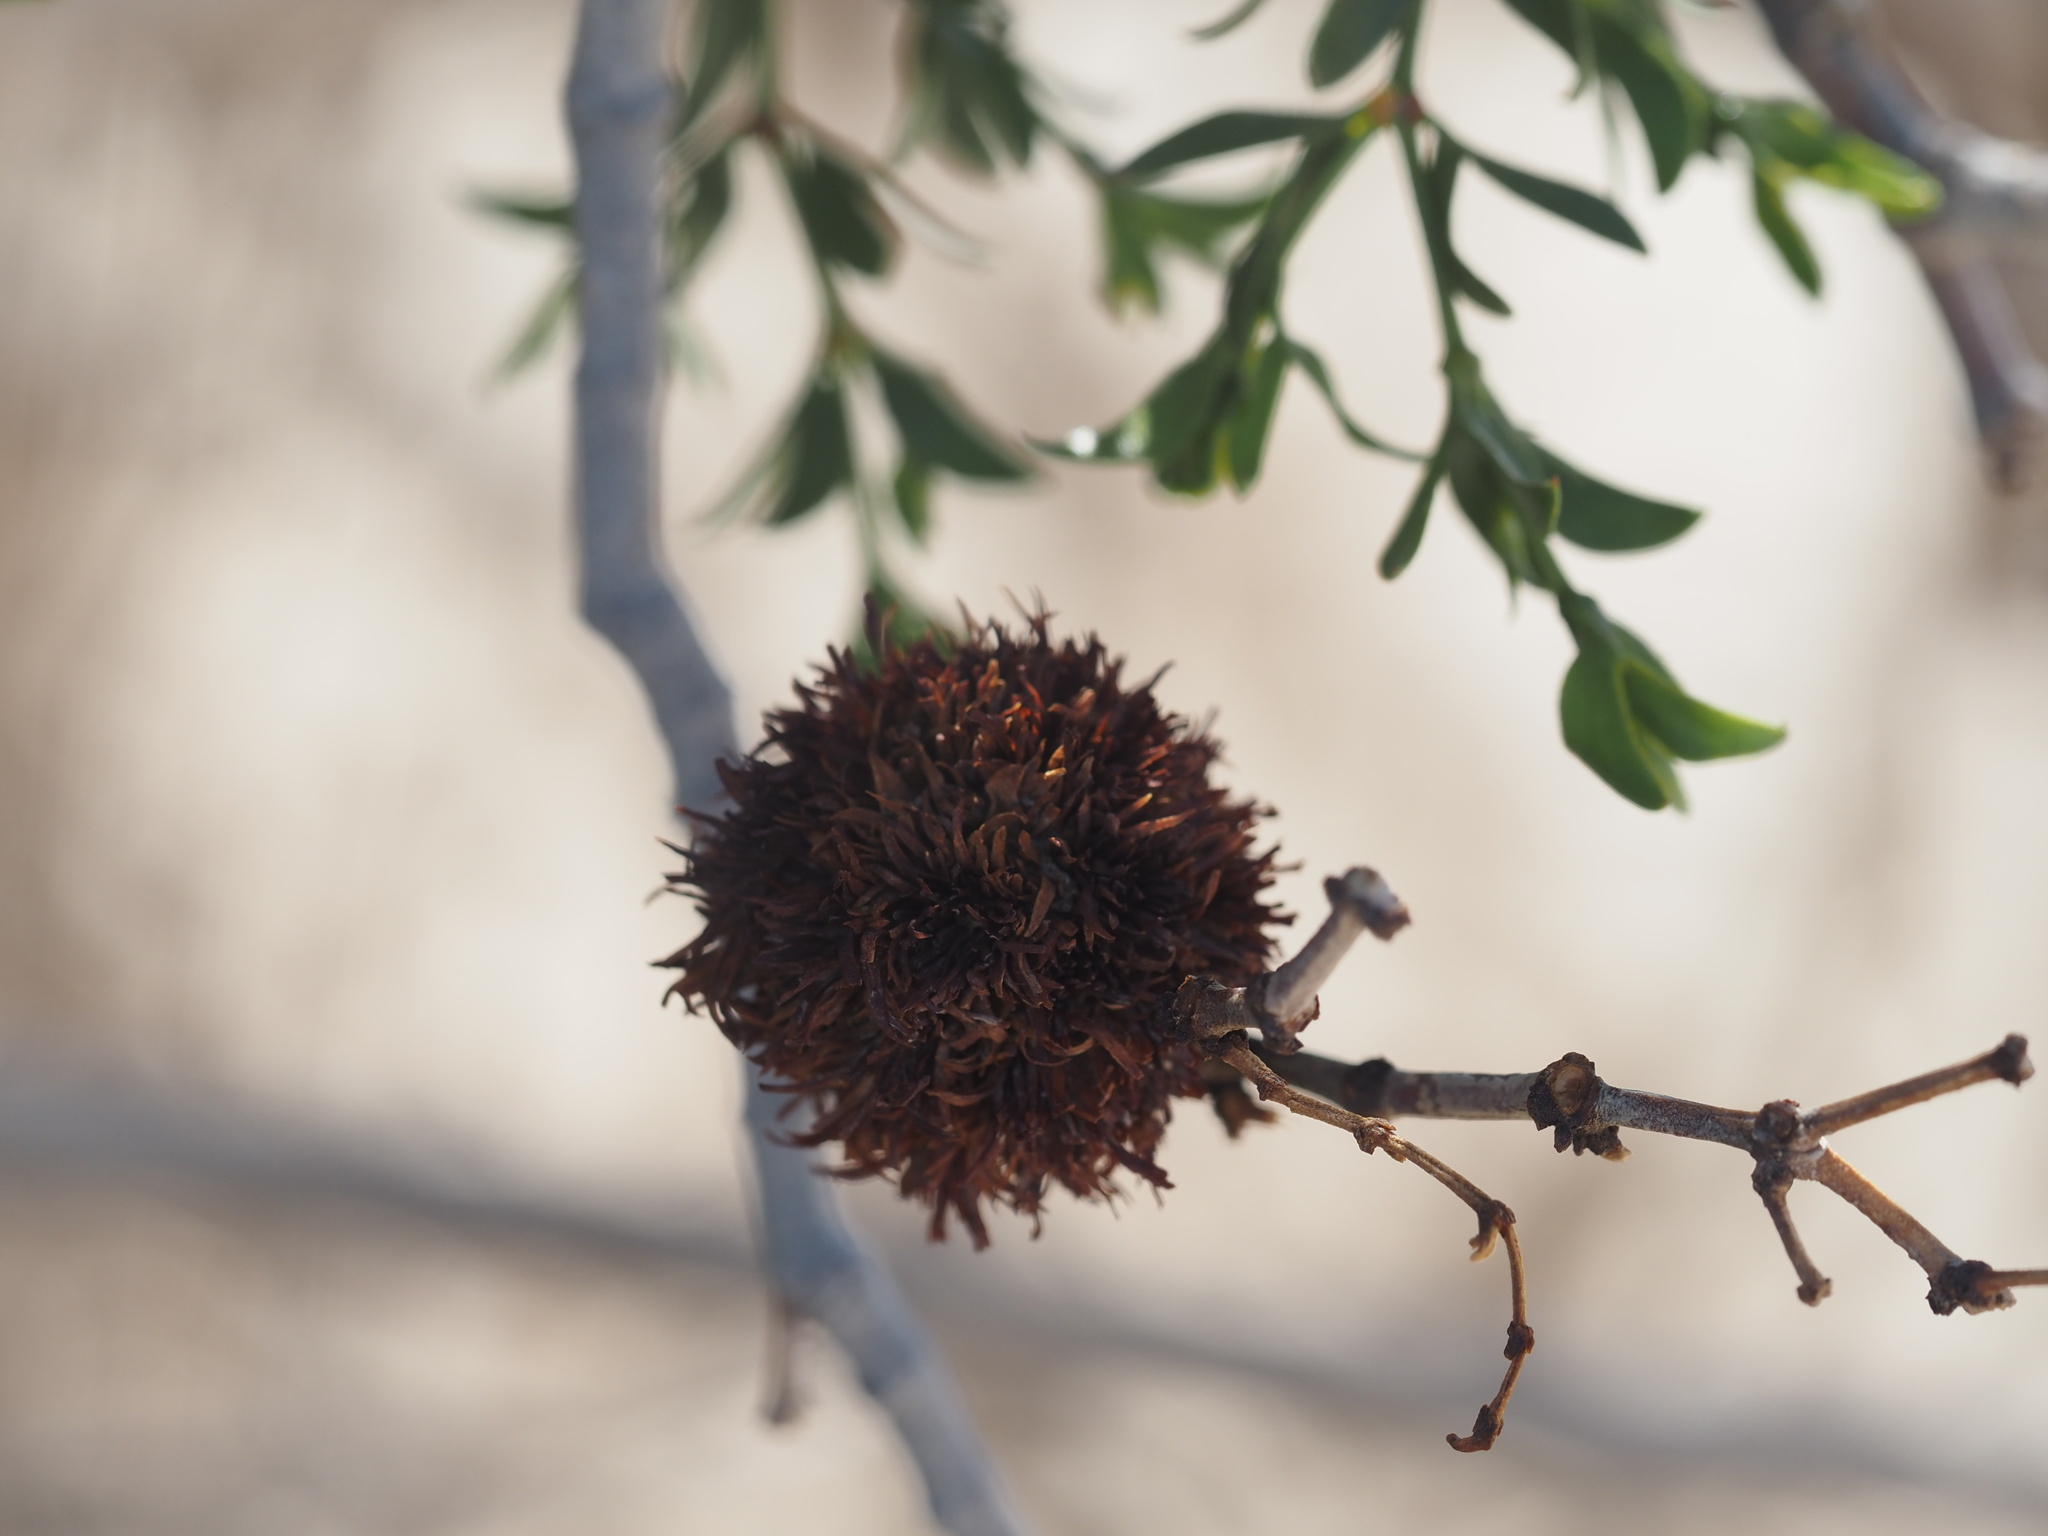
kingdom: Animalia
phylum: Arthropoda
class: Insecta
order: Diptera
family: Cecidomyiidae
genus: Asphondylia
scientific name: Asphondylia auripila
